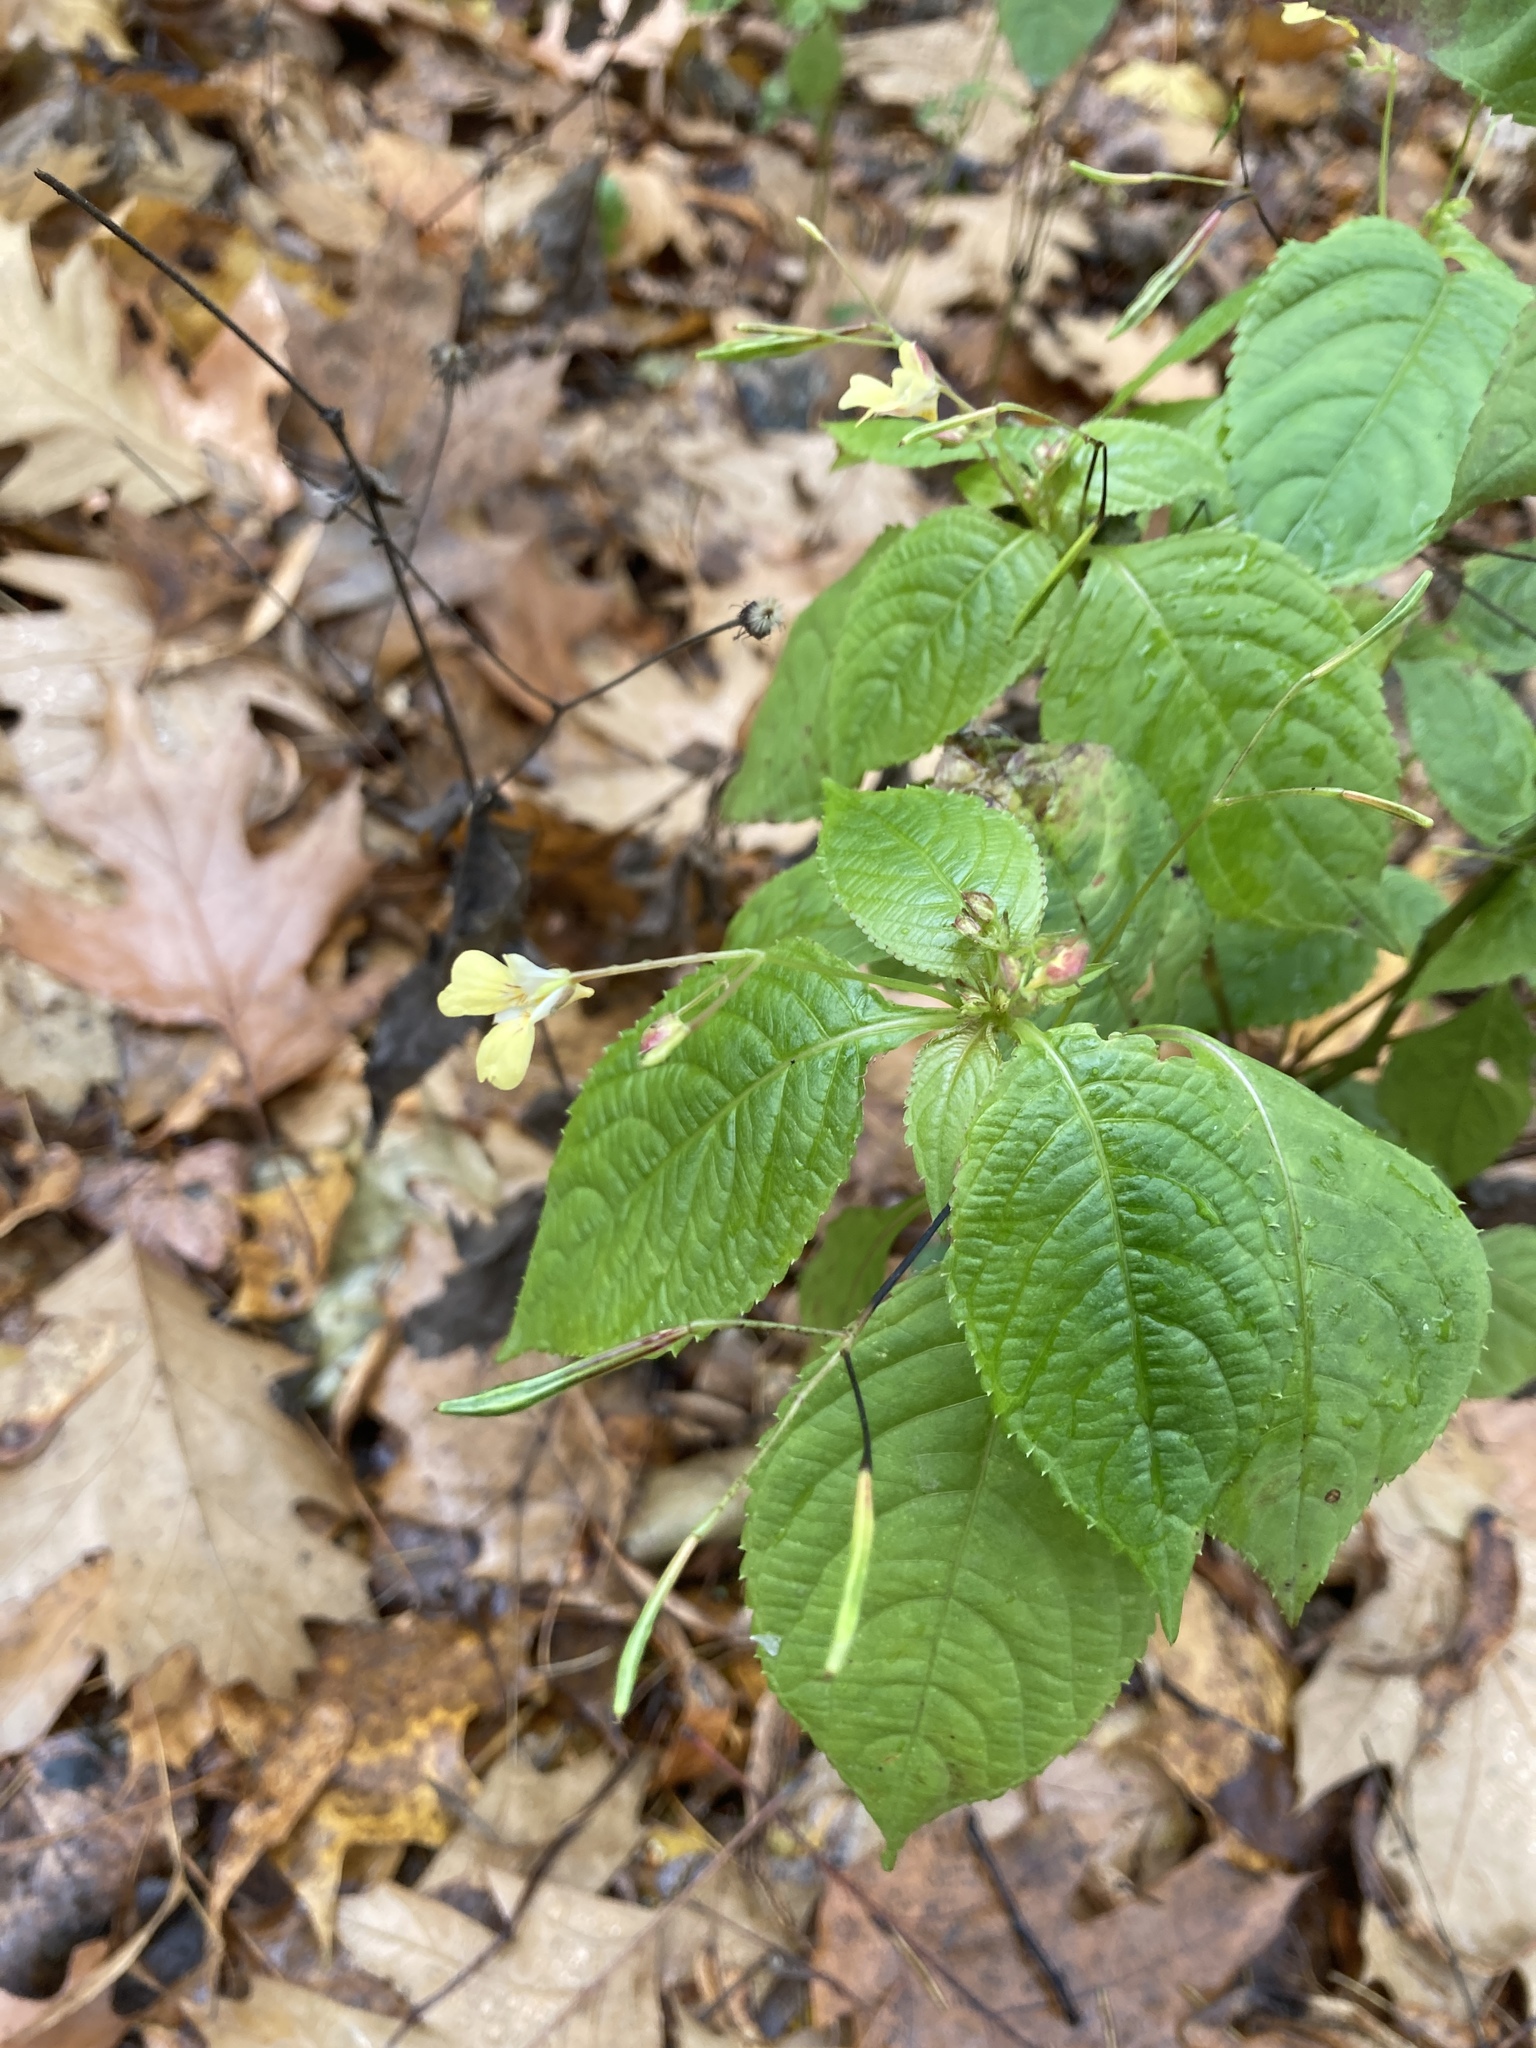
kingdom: Plantae
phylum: Tracheophyta
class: Magnoliopsida
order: Ericales
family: Balsaminaceae
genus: Impatiens
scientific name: Impatiens parviflora
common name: Small balsam
